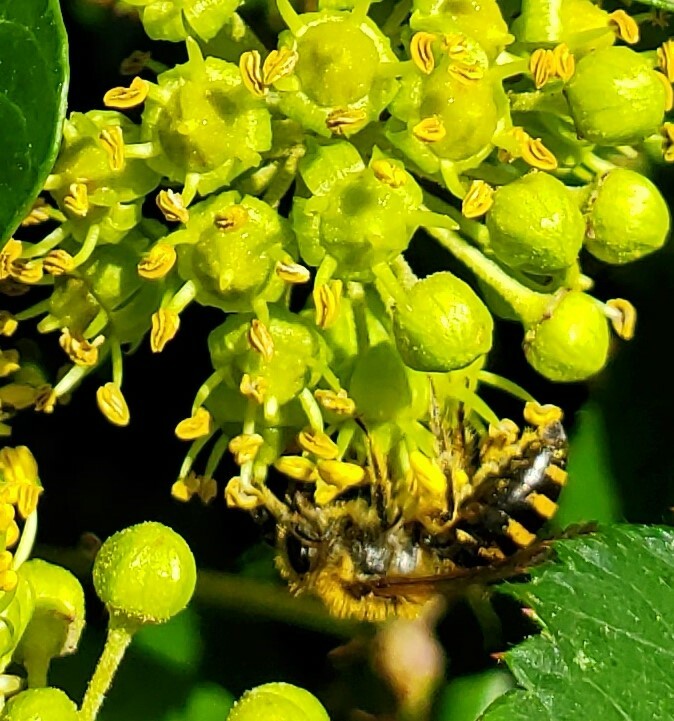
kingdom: Animalia
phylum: Arthropoda
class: Insecta
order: Hymenoptera
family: Colletidae
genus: Colletes
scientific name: Colletes hederae
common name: Ivy bee
